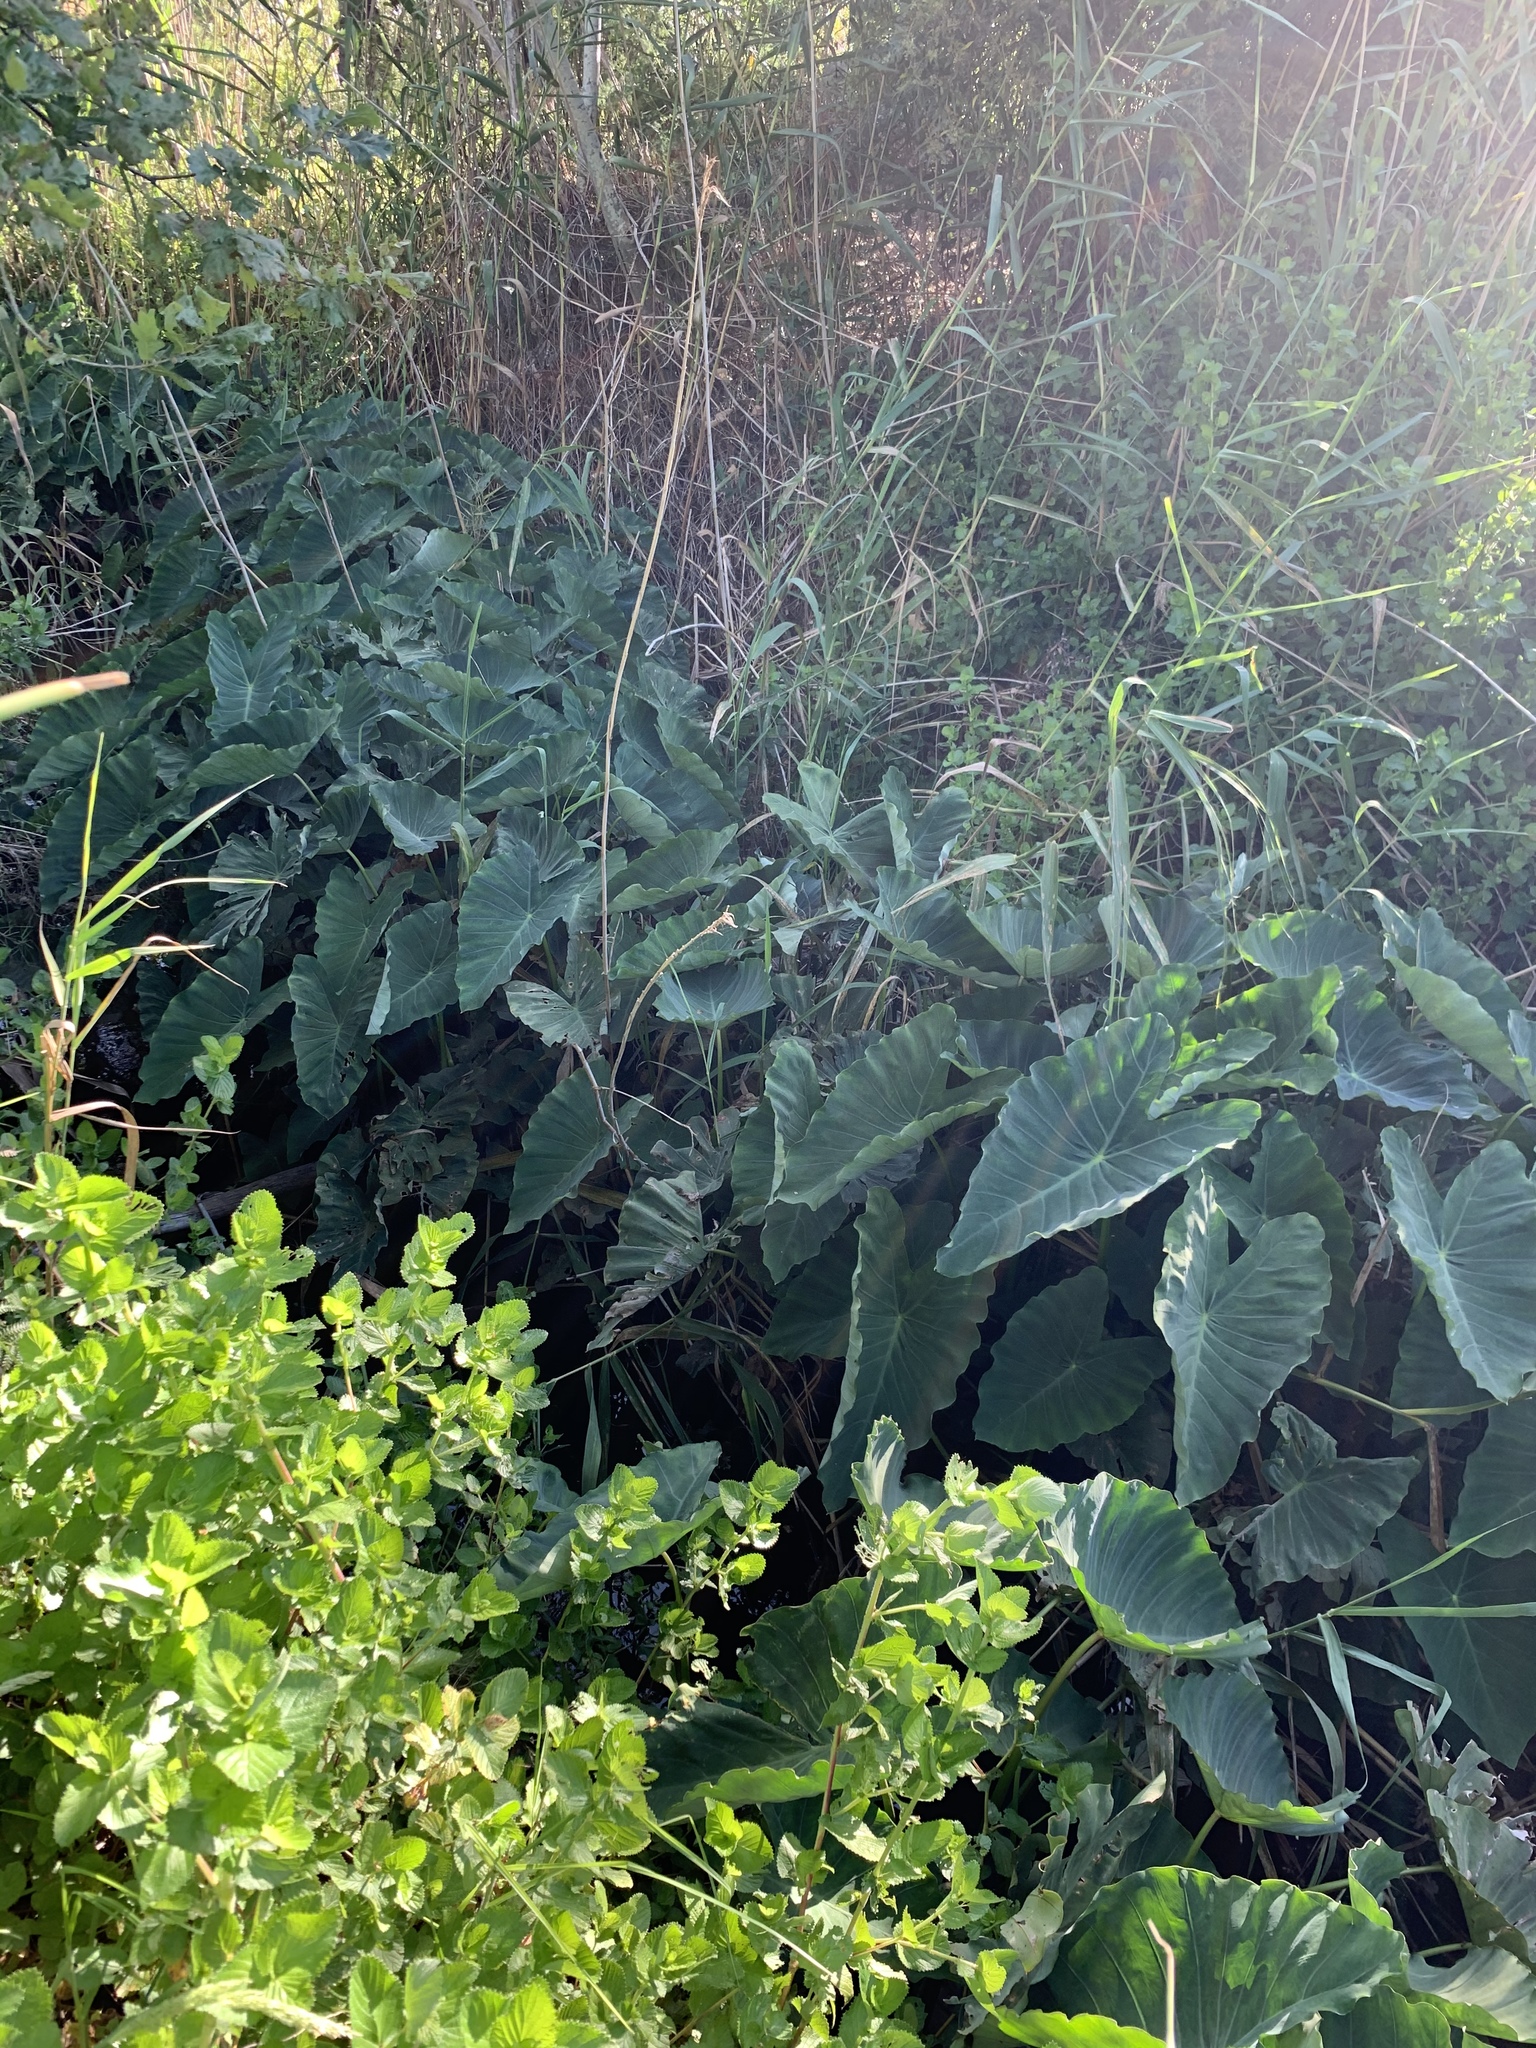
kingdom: Plantae
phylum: Tracheophyta
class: Liliopsida
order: Alismatales
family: Araceae
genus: Colocasia
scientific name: Colocasia esculenta
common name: Taro
